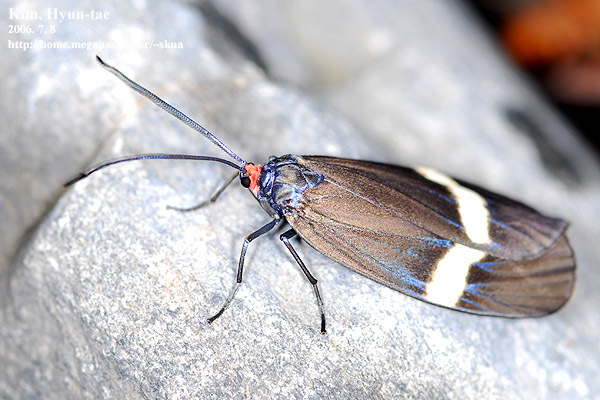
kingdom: Animalia
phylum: Arthropoda
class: Insecta
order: Lepidoptera
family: Zygaenidae
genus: Chalcosia
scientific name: Chalcosia remota
